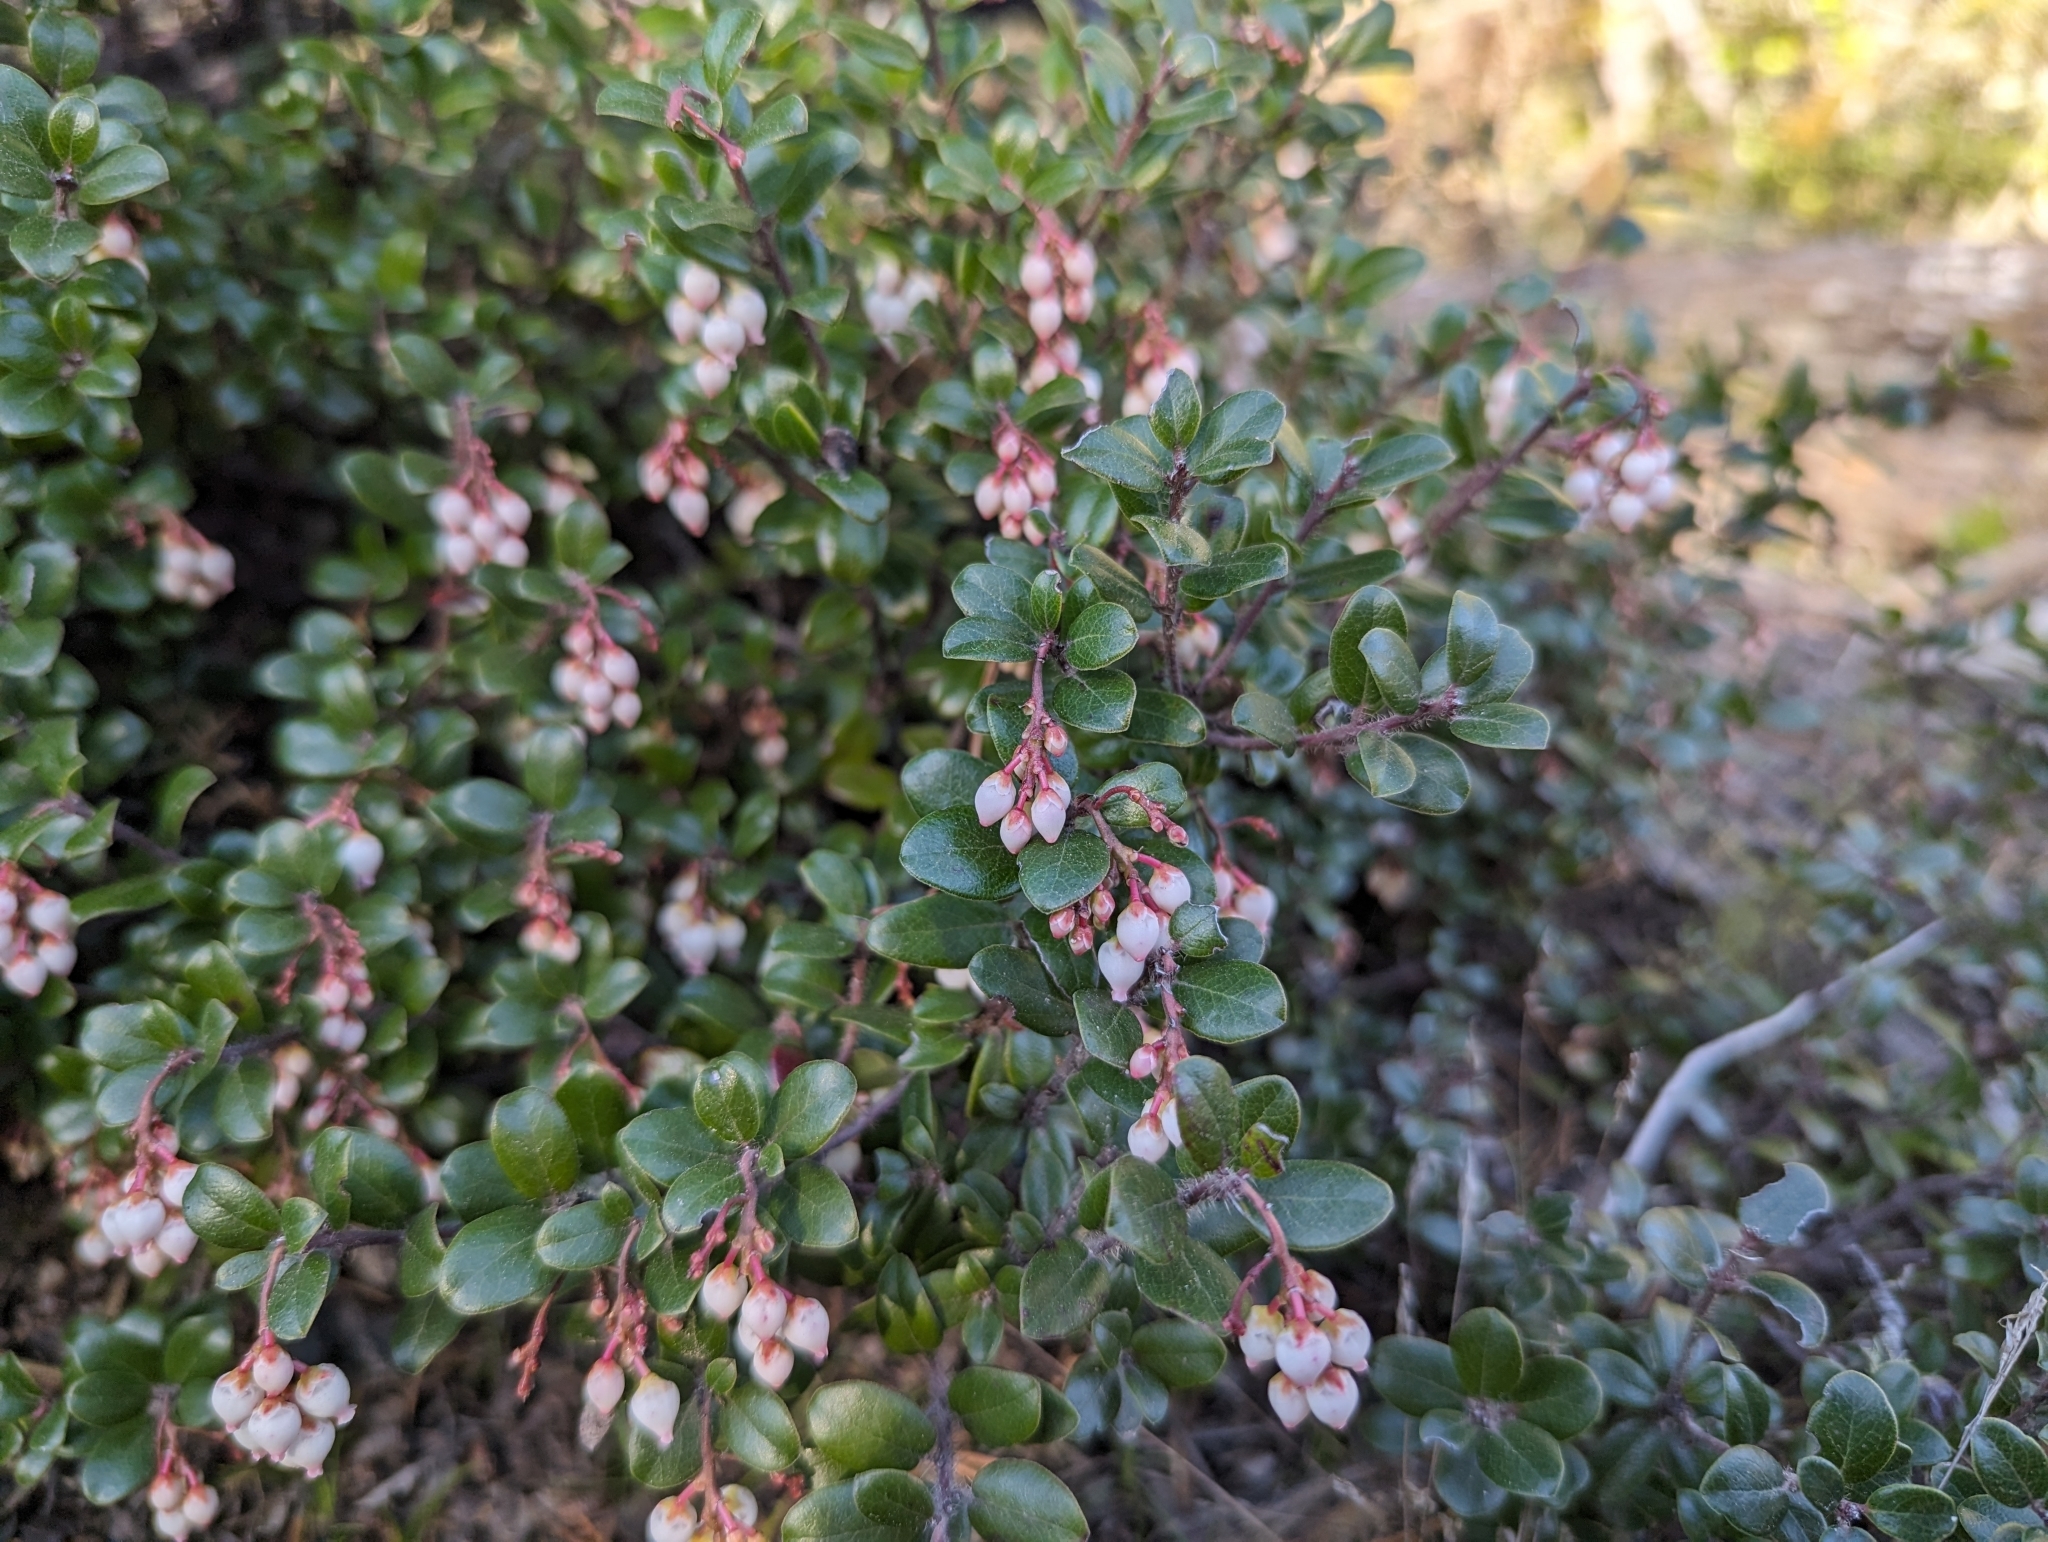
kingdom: Plantae
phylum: Tracheophyta
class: Magnoliopsida
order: Ericales
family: Ericaceae
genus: Arctostaphylos
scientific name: Arctostaphylos nummularia
